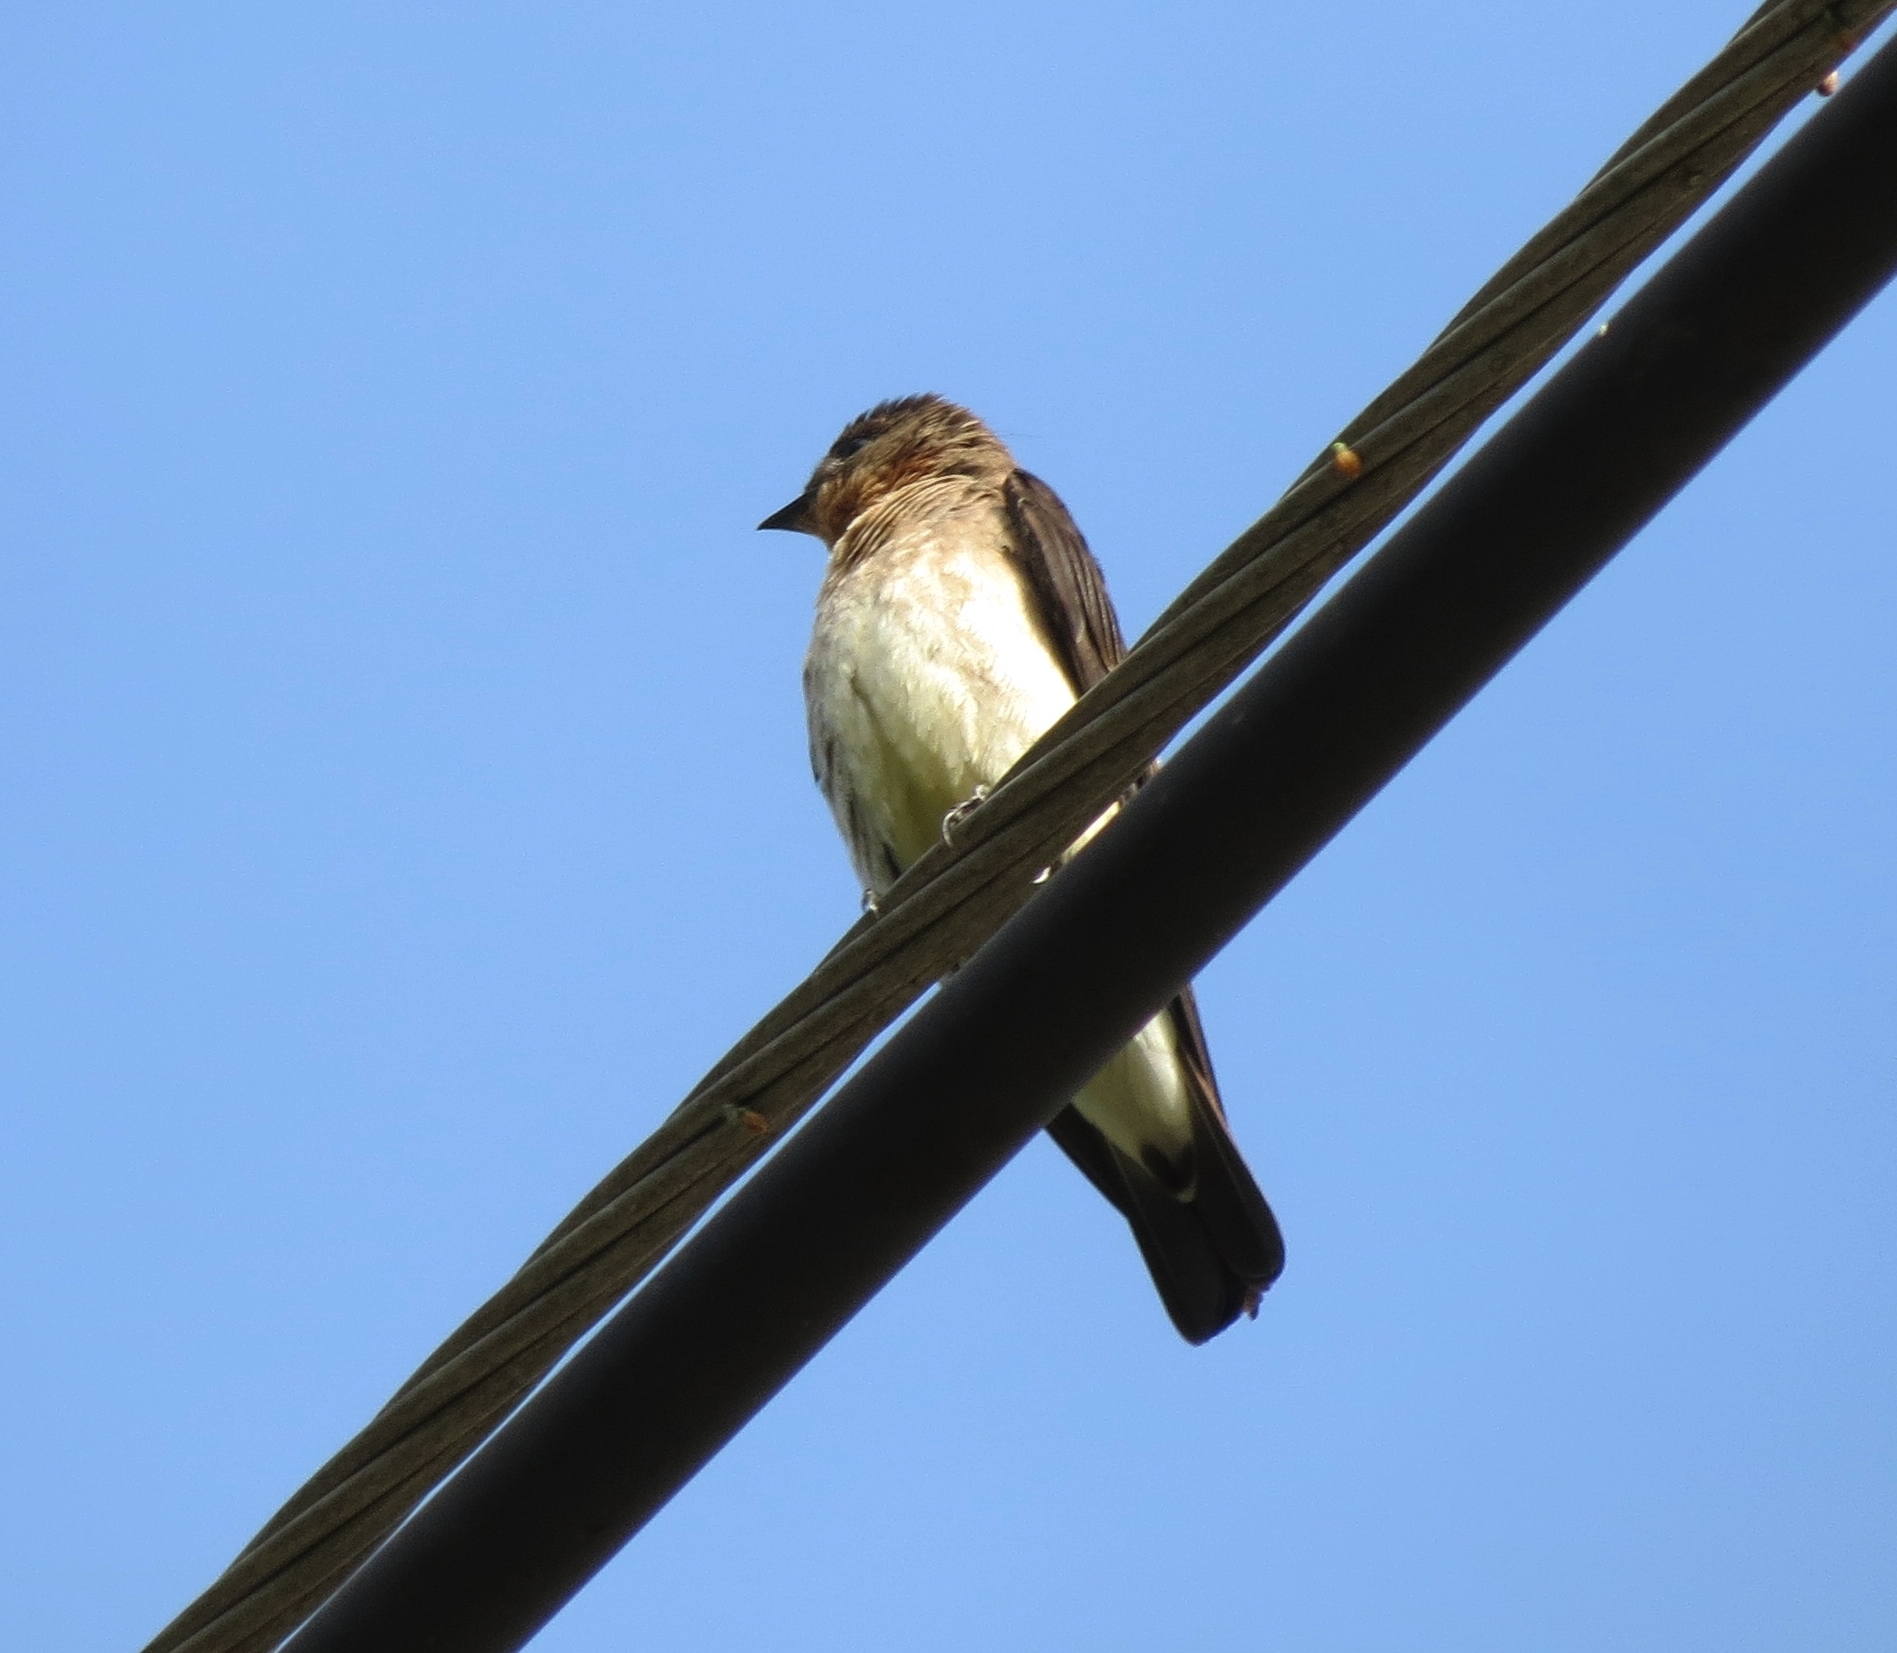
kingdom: Animalia
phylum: Chordata
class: Aves
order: Passeriformes
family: Hirundinidae
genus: Stelgidopteryx
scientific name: Stelgidopteryx ruficollis
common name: Southern rough-winged swallow
